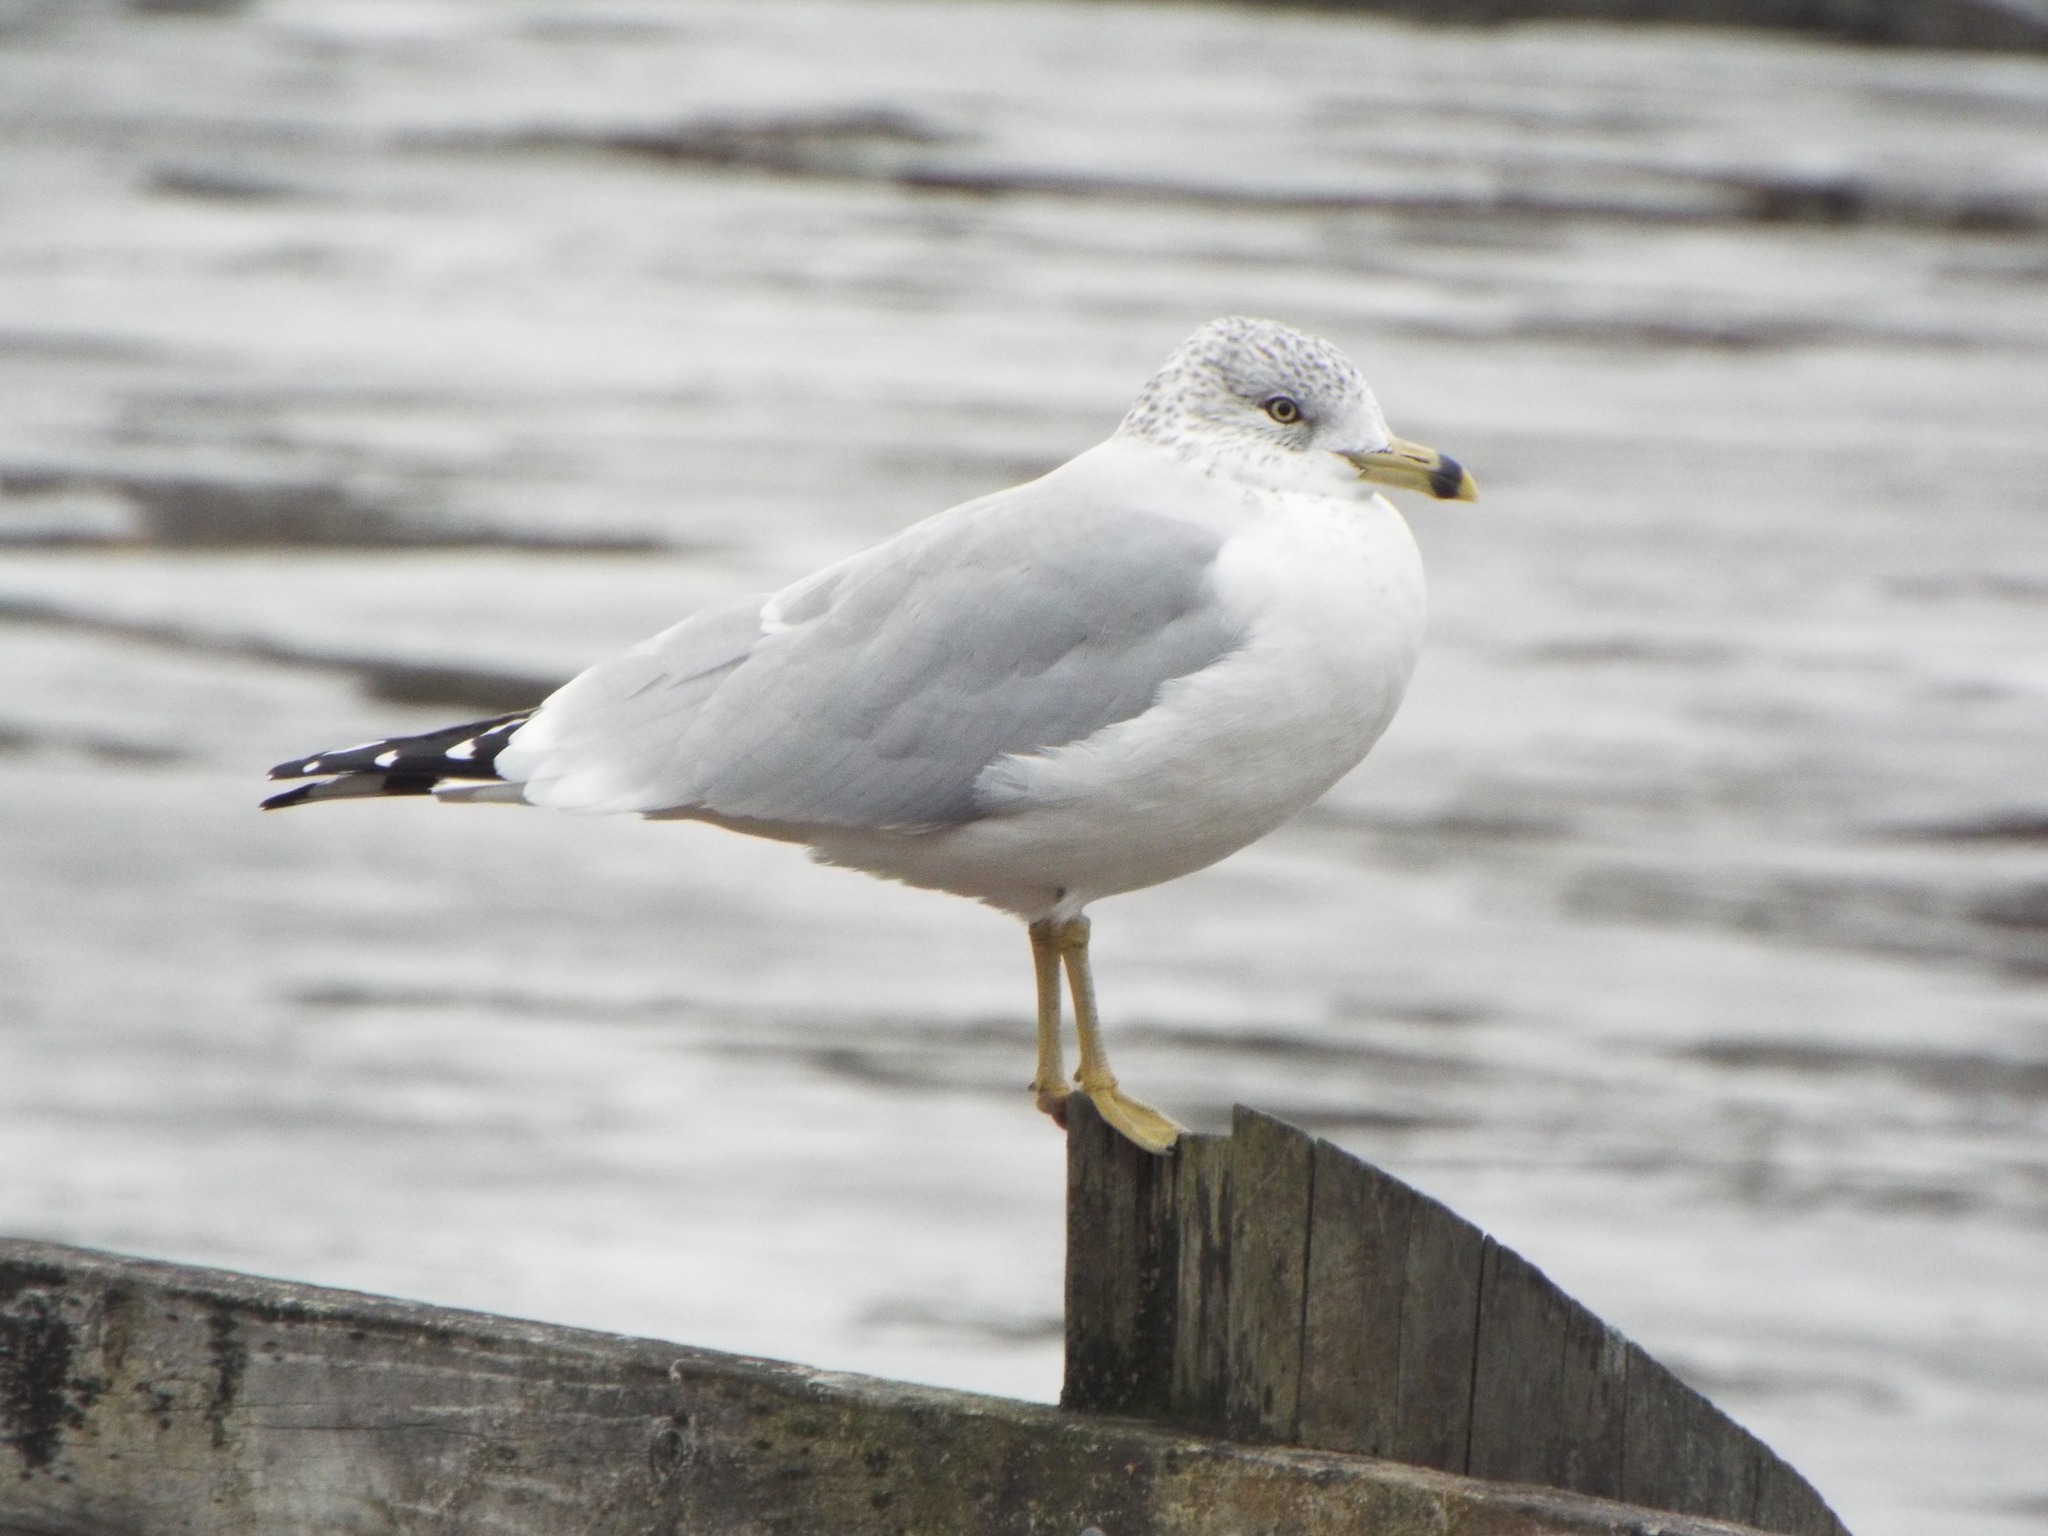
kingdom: Animalia
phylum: Chordata
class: Aves
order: Charadriiformes
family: Laridae
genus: Larus
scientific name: Larus delawarensis
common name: Ring-billed gull
